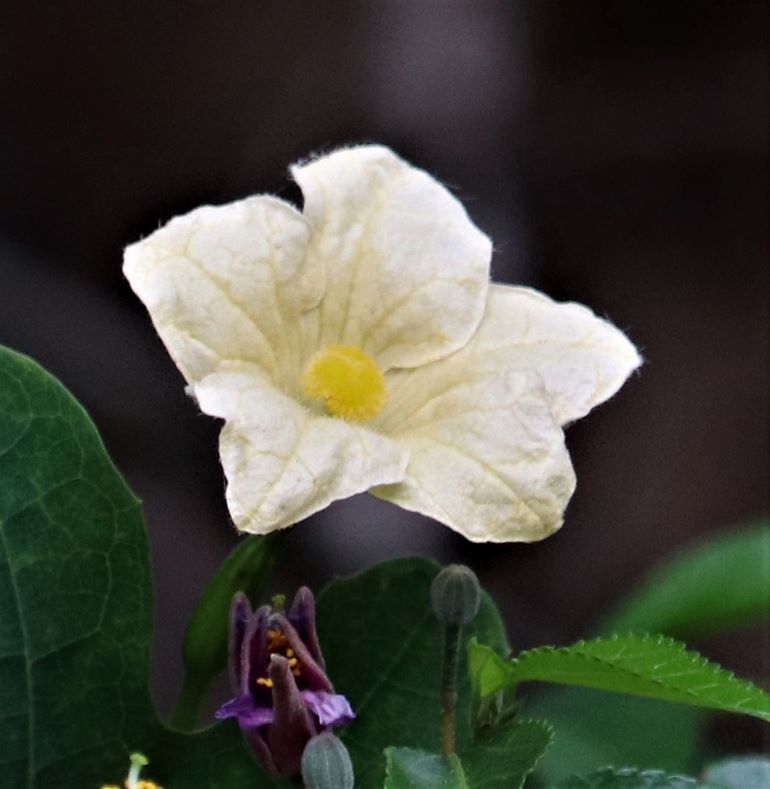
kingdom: Plantae
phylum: Tracheophyta
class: Magnoliopsida
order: Cucurbitales
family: Cucurbitaceae
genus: Coccinia
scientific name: Coccinia quinqueloba
